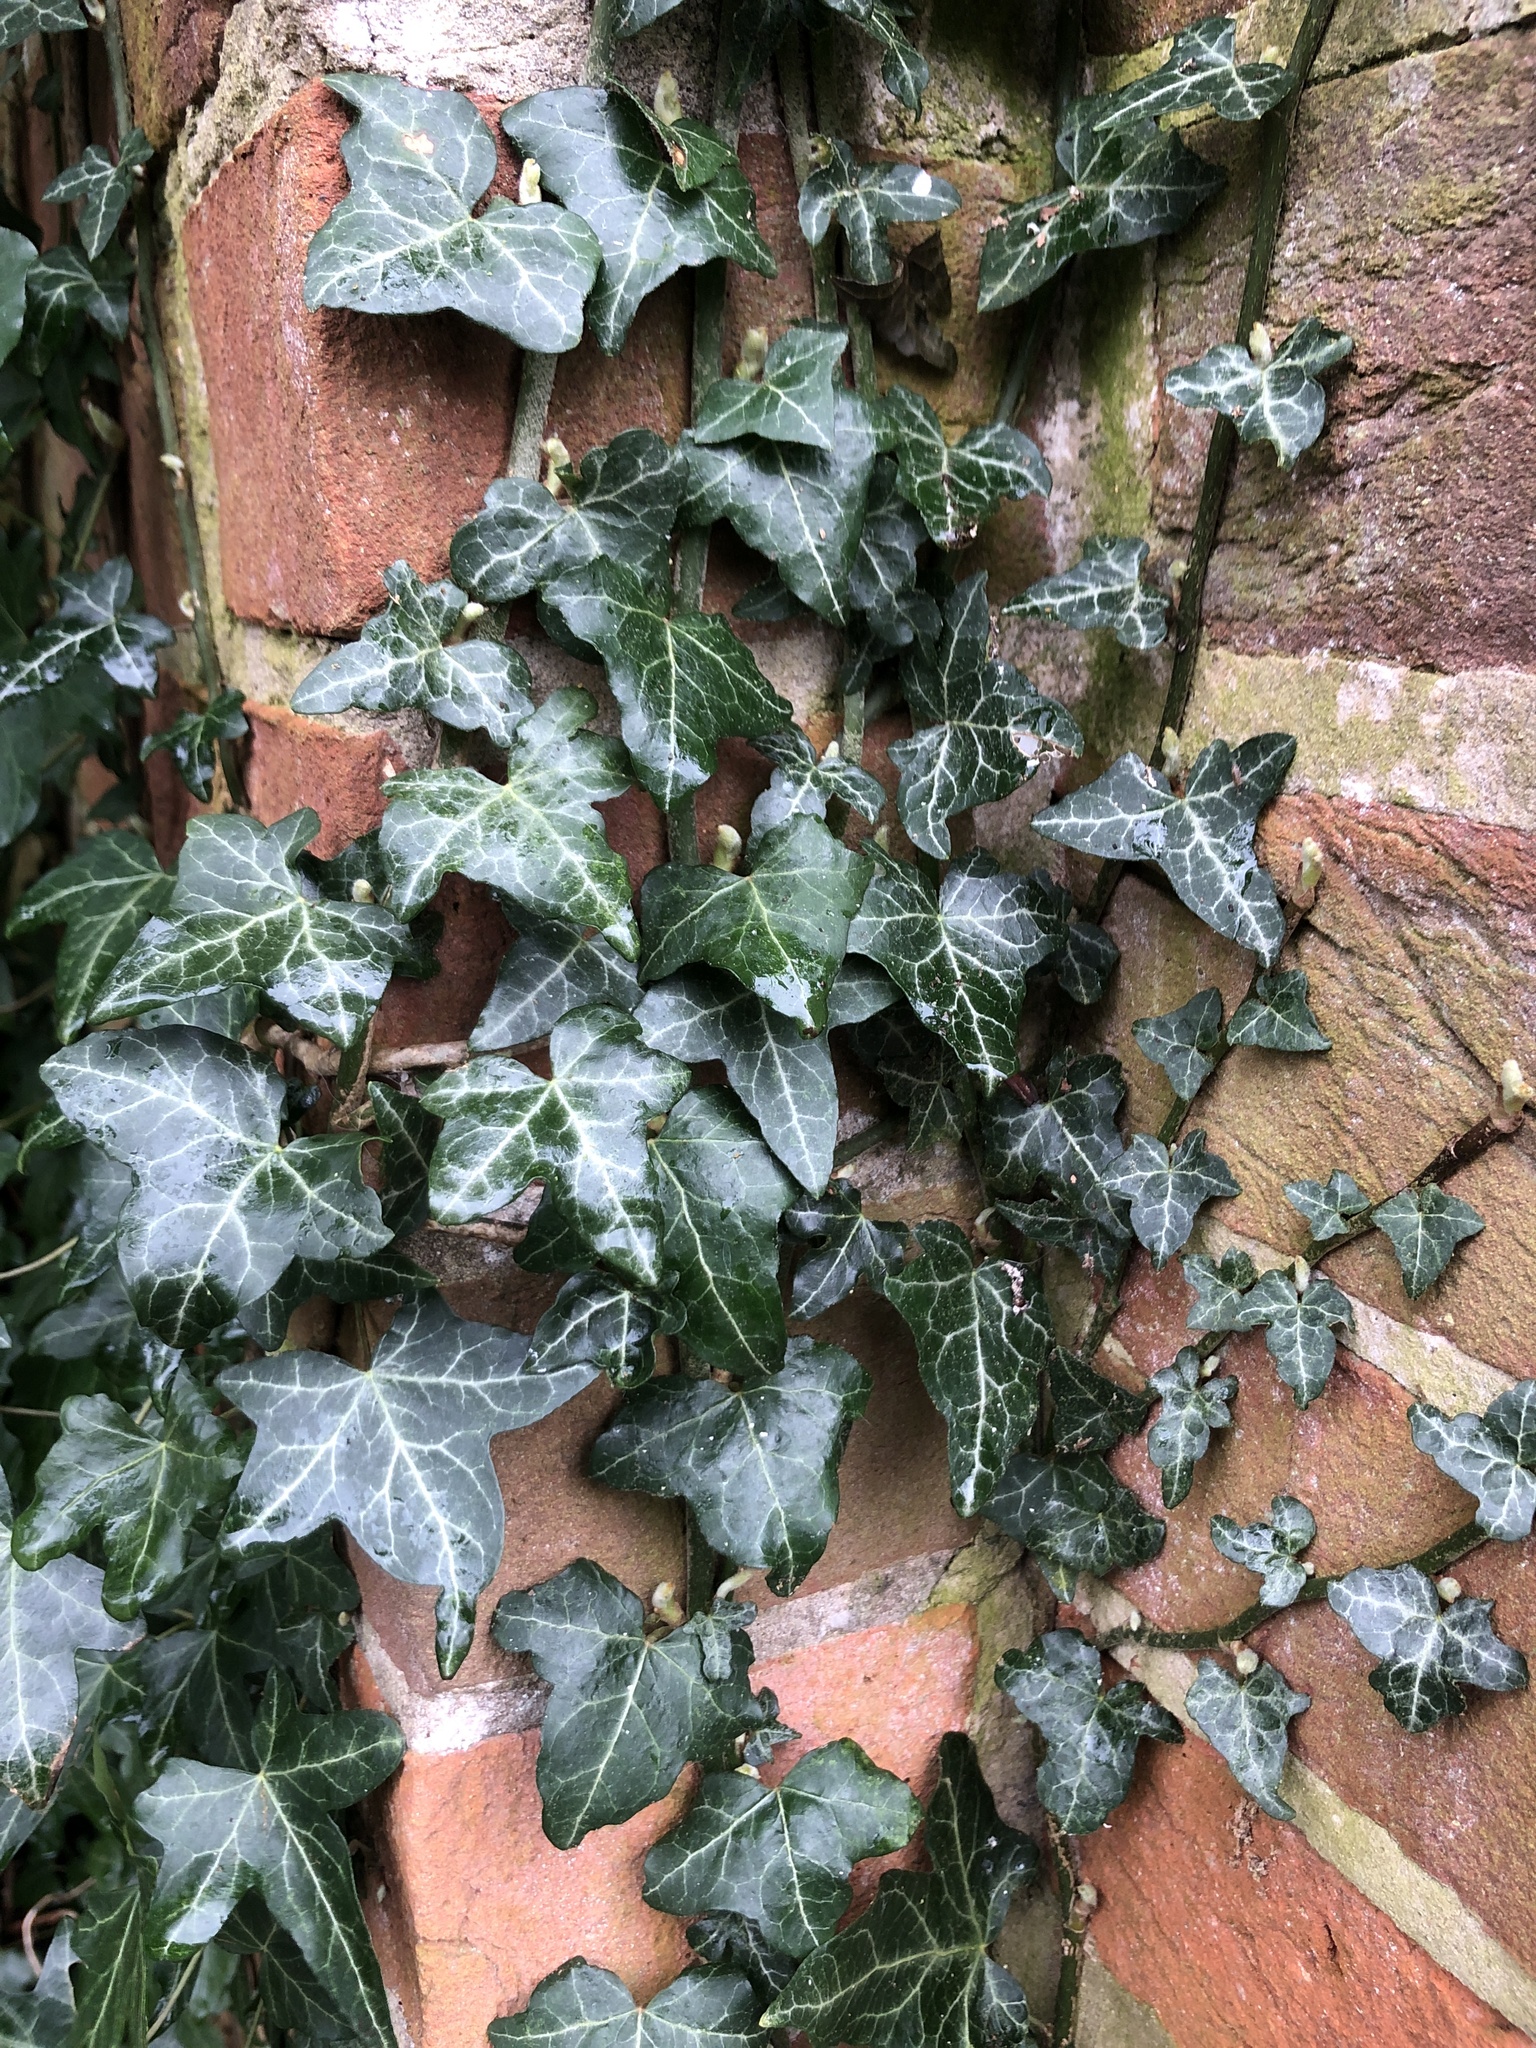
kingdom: Plantae
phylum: Tracheophyta
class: Magnoliopsida
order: Apiales
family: Araliaceae
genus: Hedera
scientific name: Hedera helix
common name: Ivy
